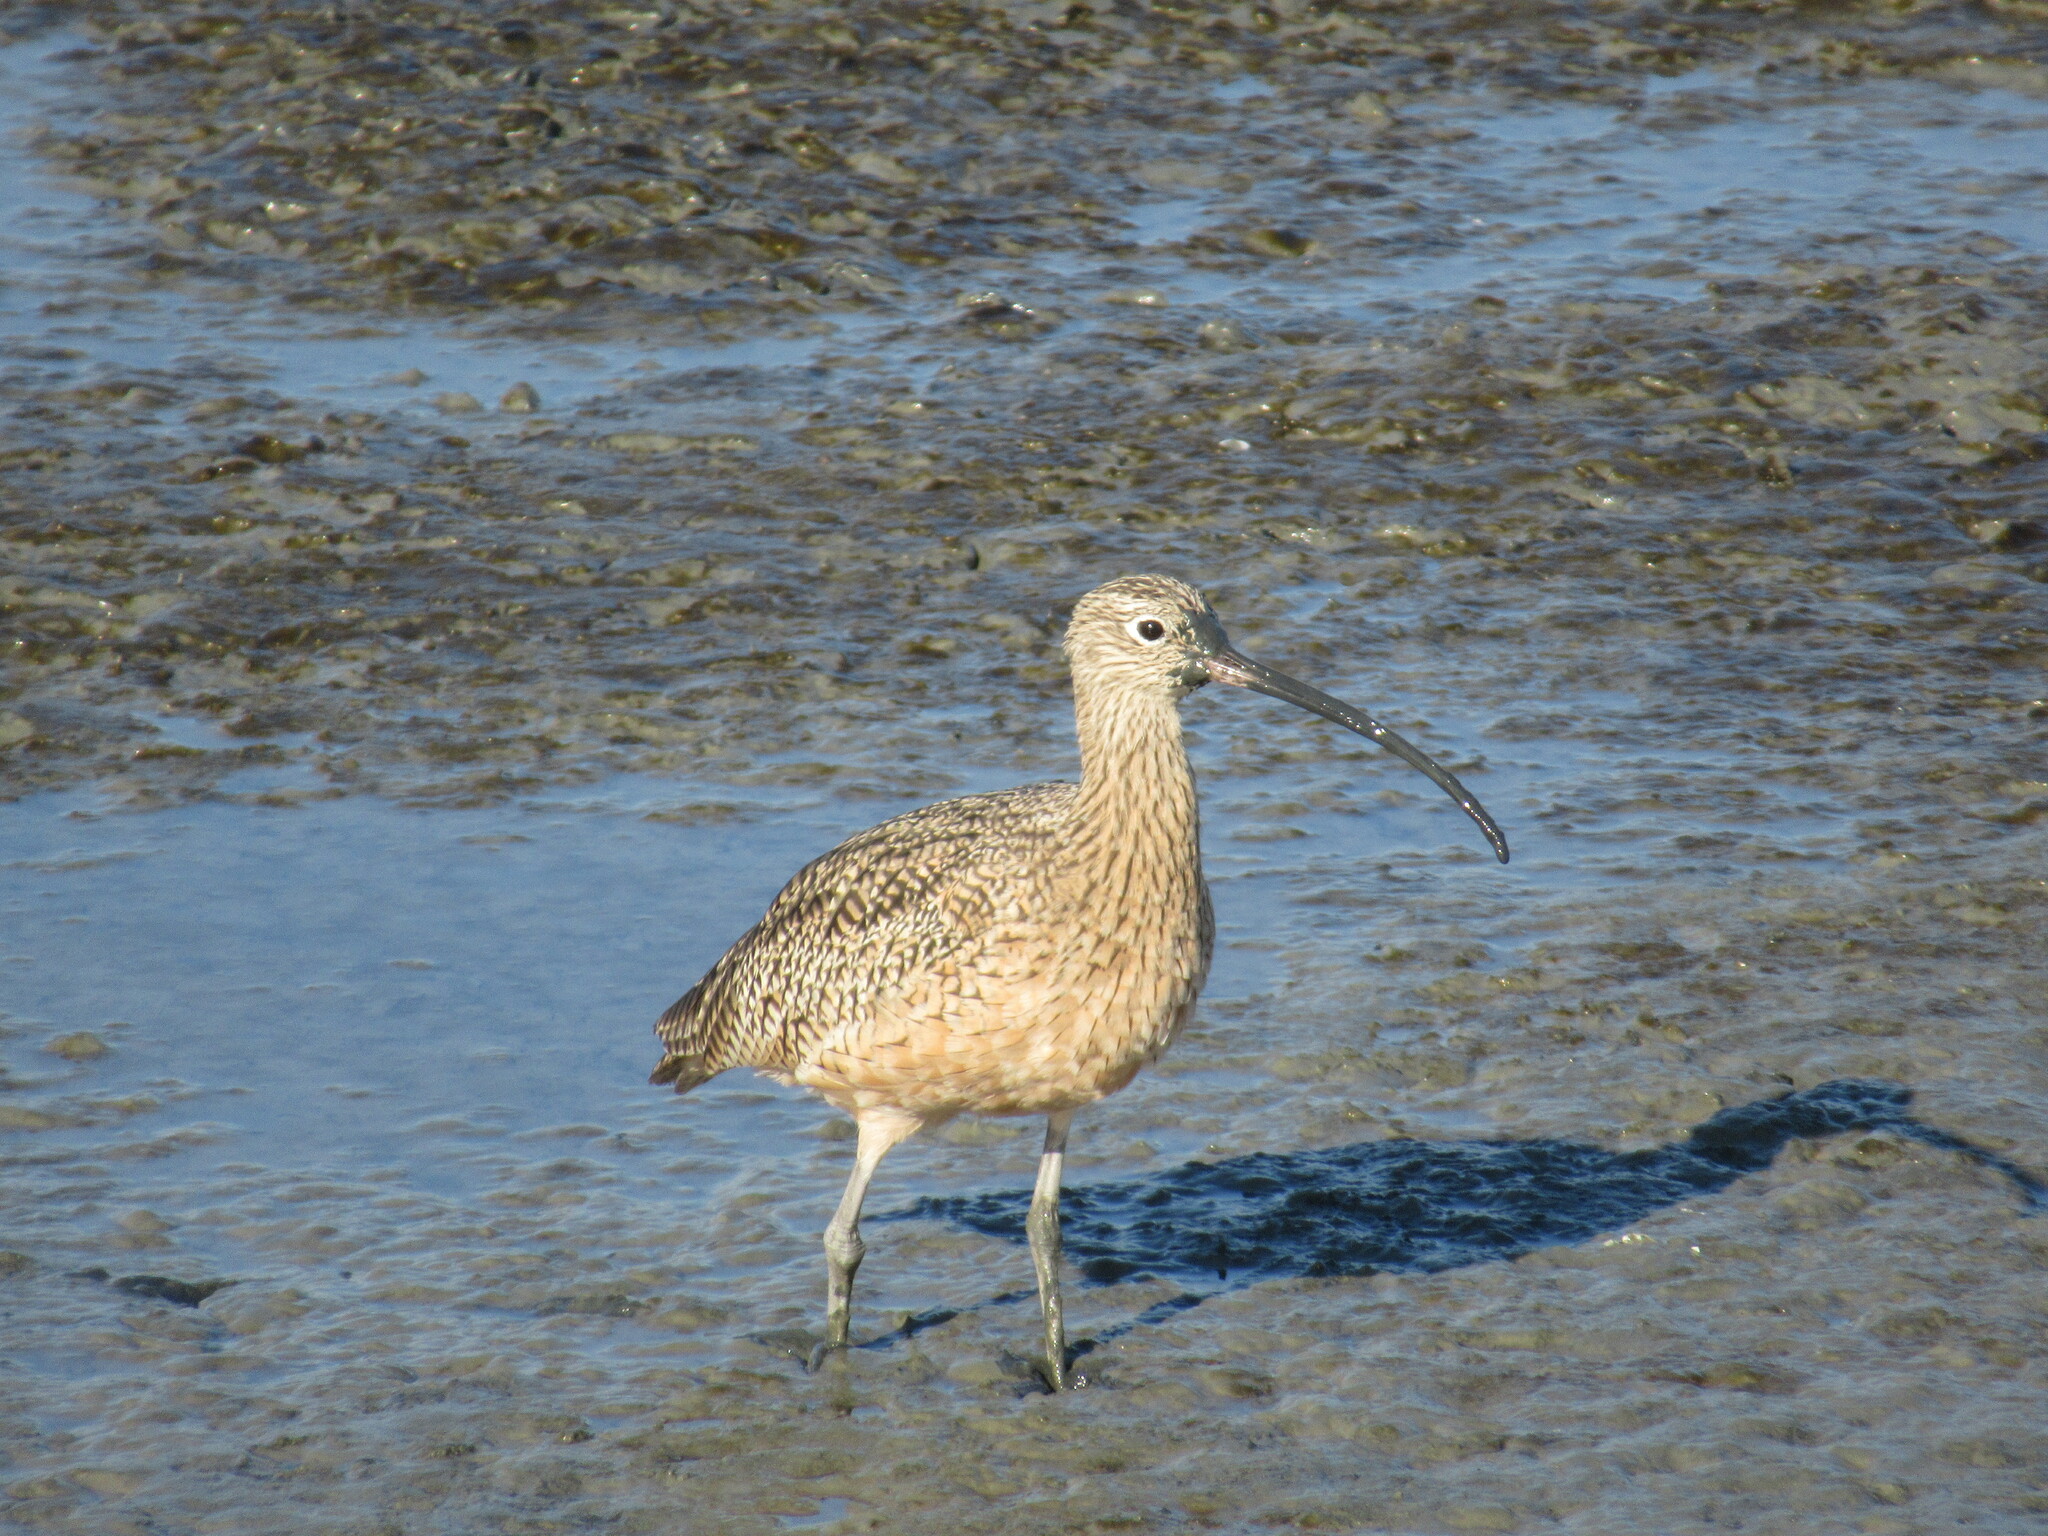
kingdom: Animalia
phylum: Chordata
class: Aves
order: Charadriiformes
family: Scolopacidae
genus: Numenius
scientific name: Numenius americanus
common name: Long-billed curlew
